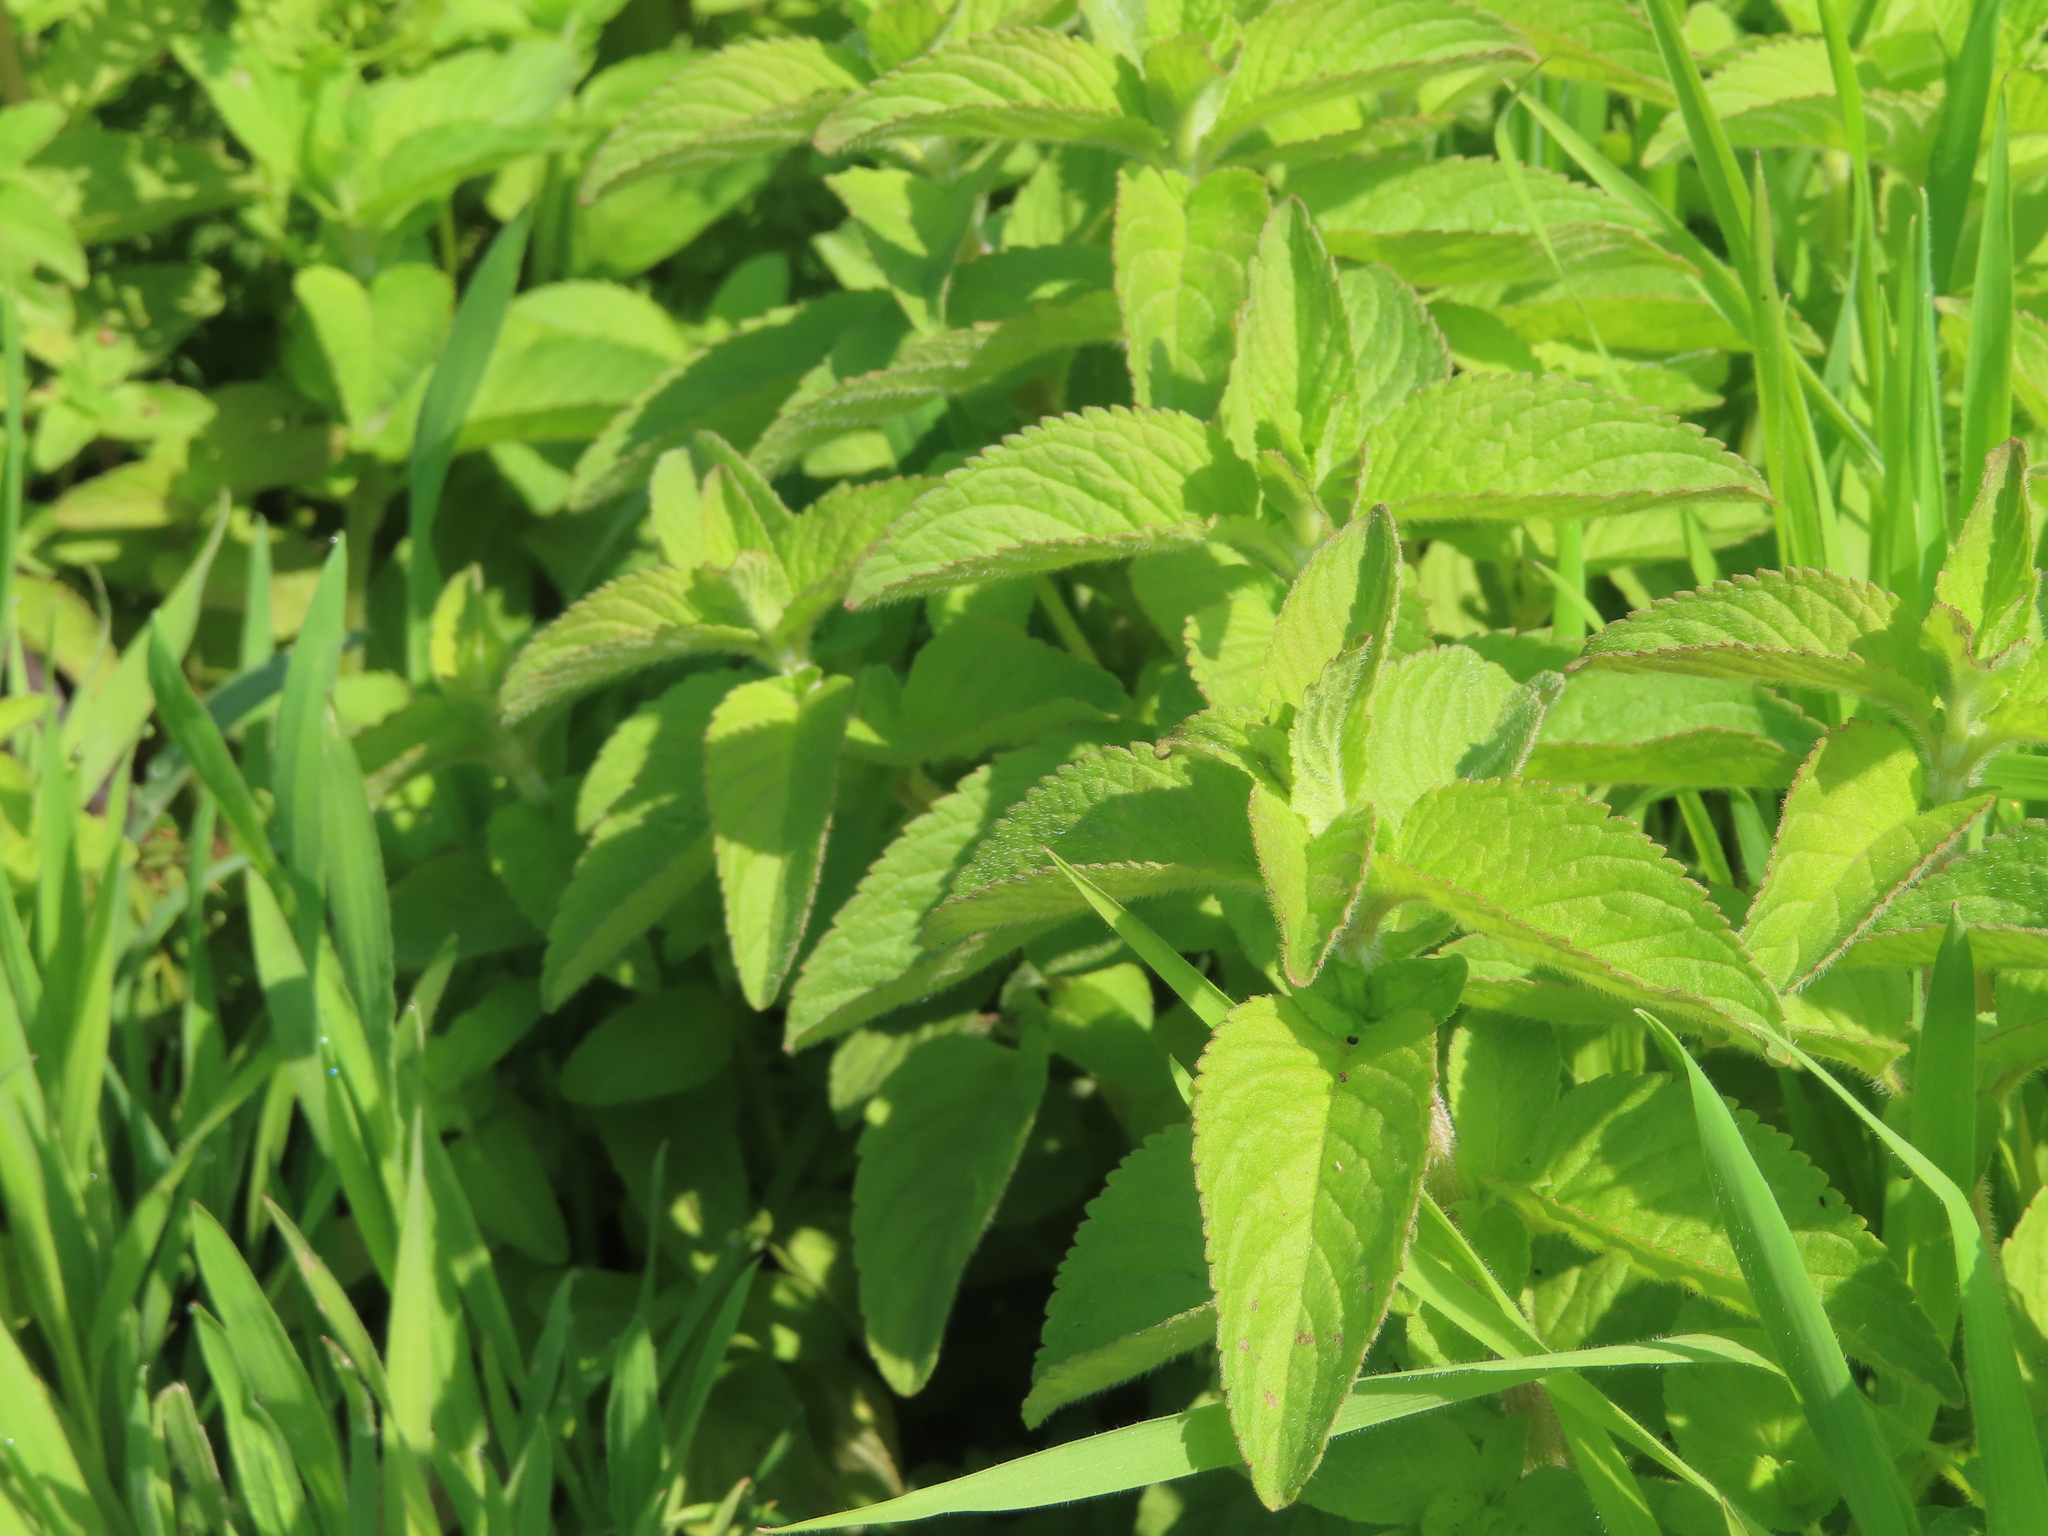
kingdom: Plantae
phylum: Tracheophyta
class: Magnoliopsida
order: Lamiales
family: Lamiaceae
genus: Mentha
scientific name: Mentha aquatica
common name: Water mint
